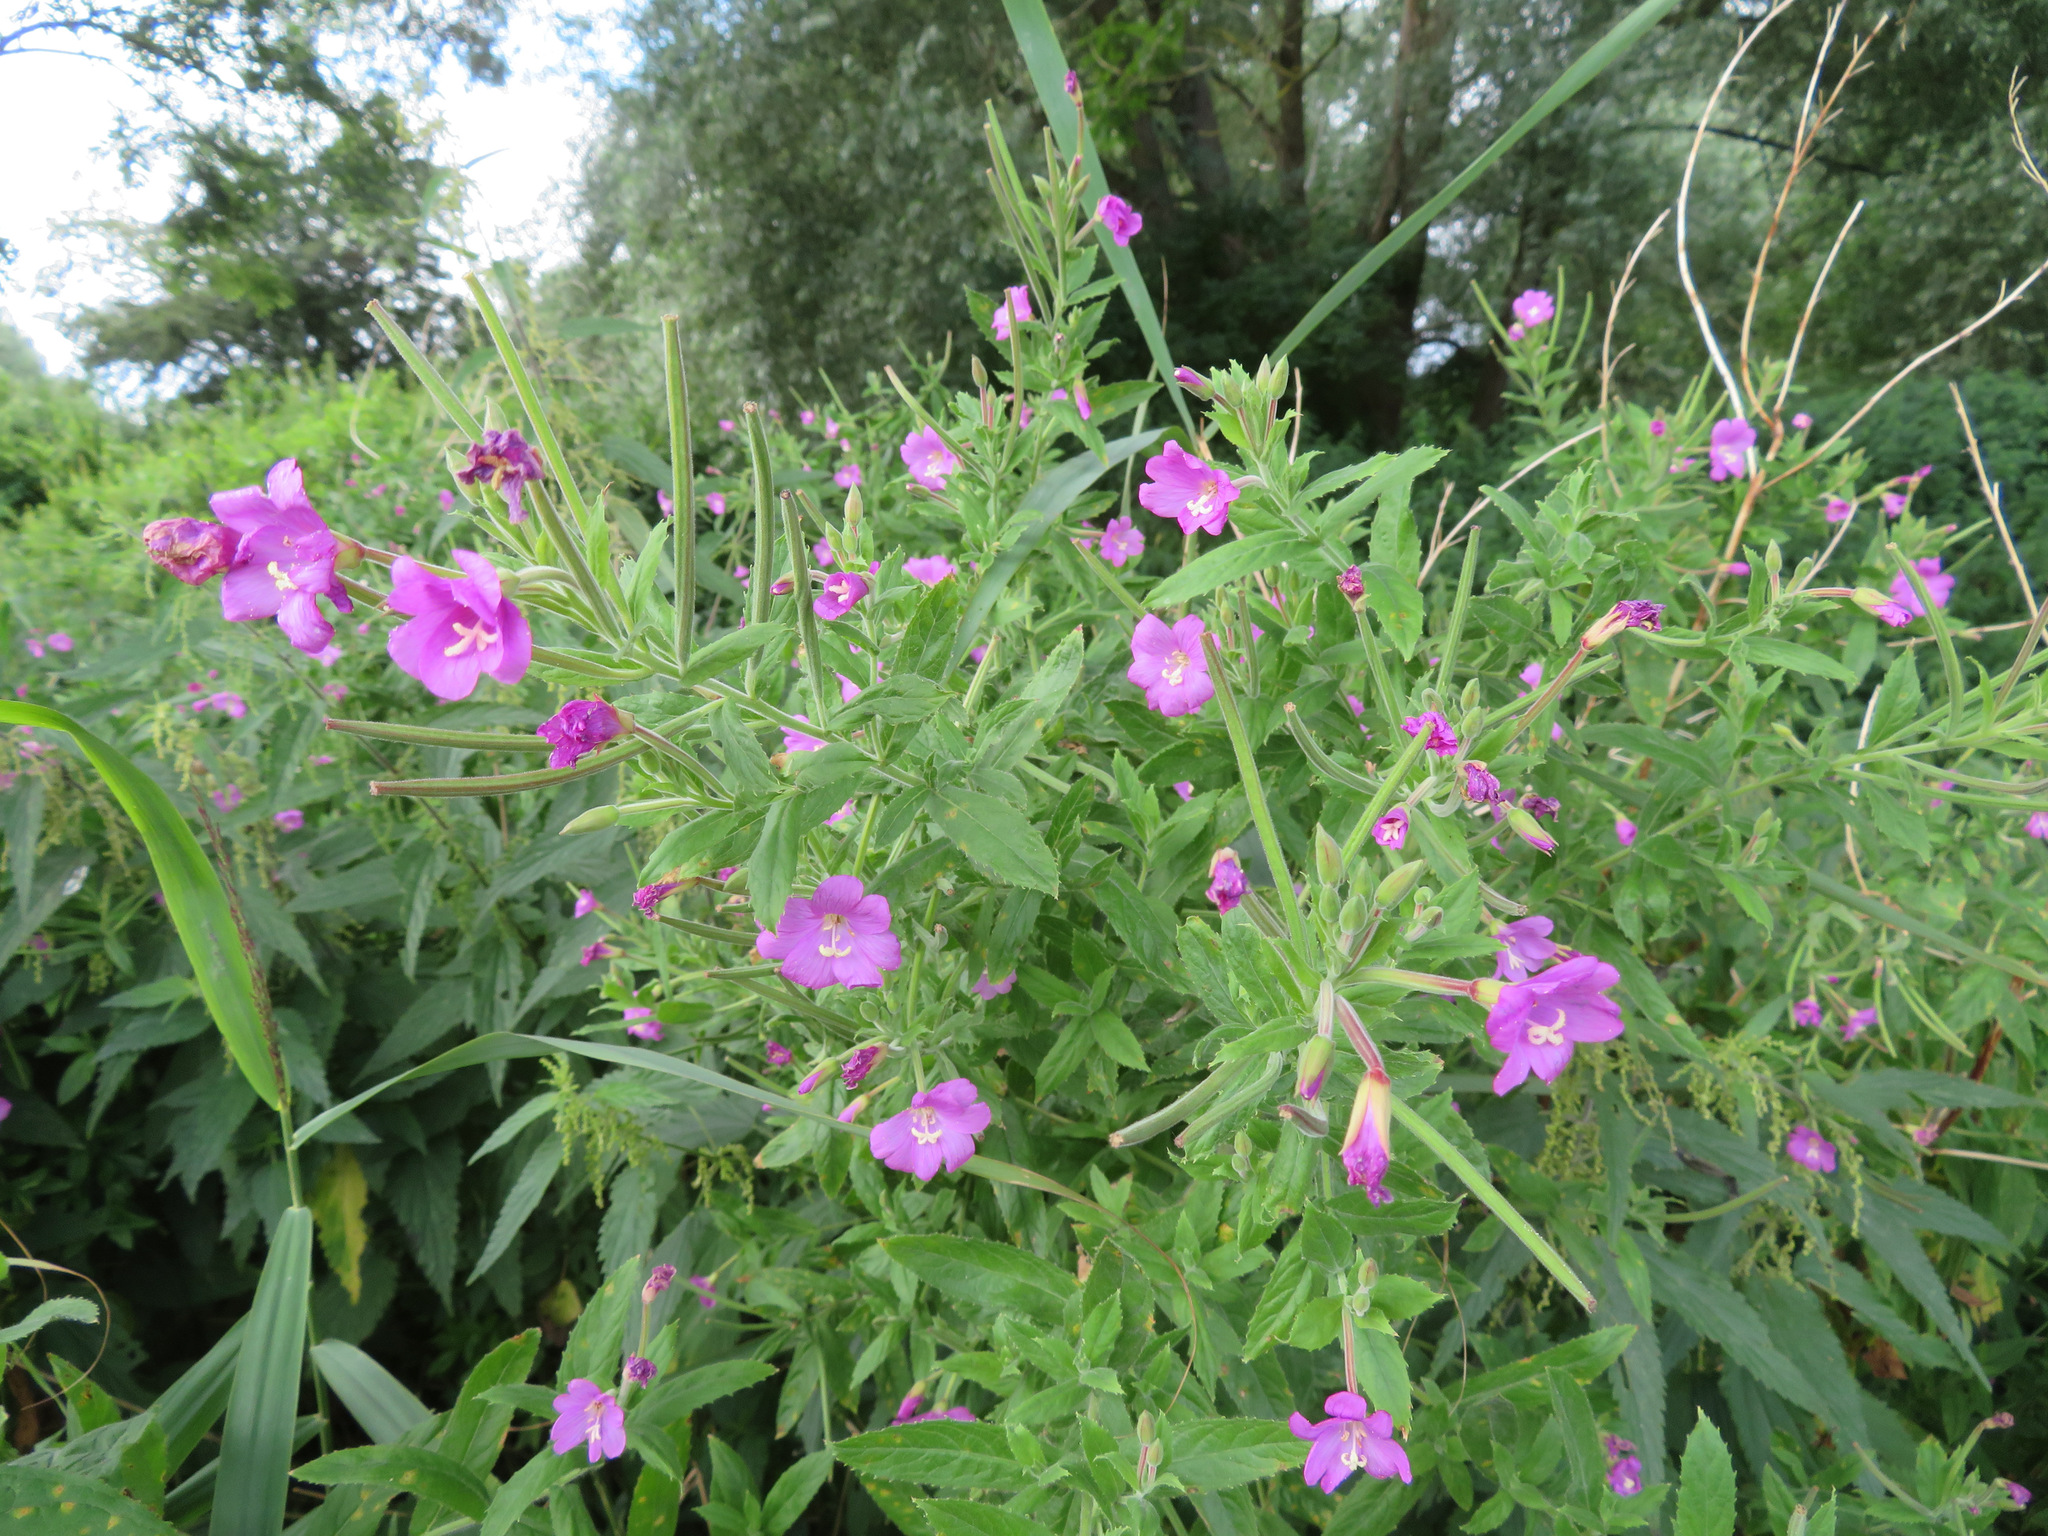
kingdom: Plantae
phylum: Tracheophyta
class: Magnoliopsida
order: Myrtales
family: Onagraceae
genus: Epilobium
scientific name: Epilobium hirsutum
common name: Great willowherb
